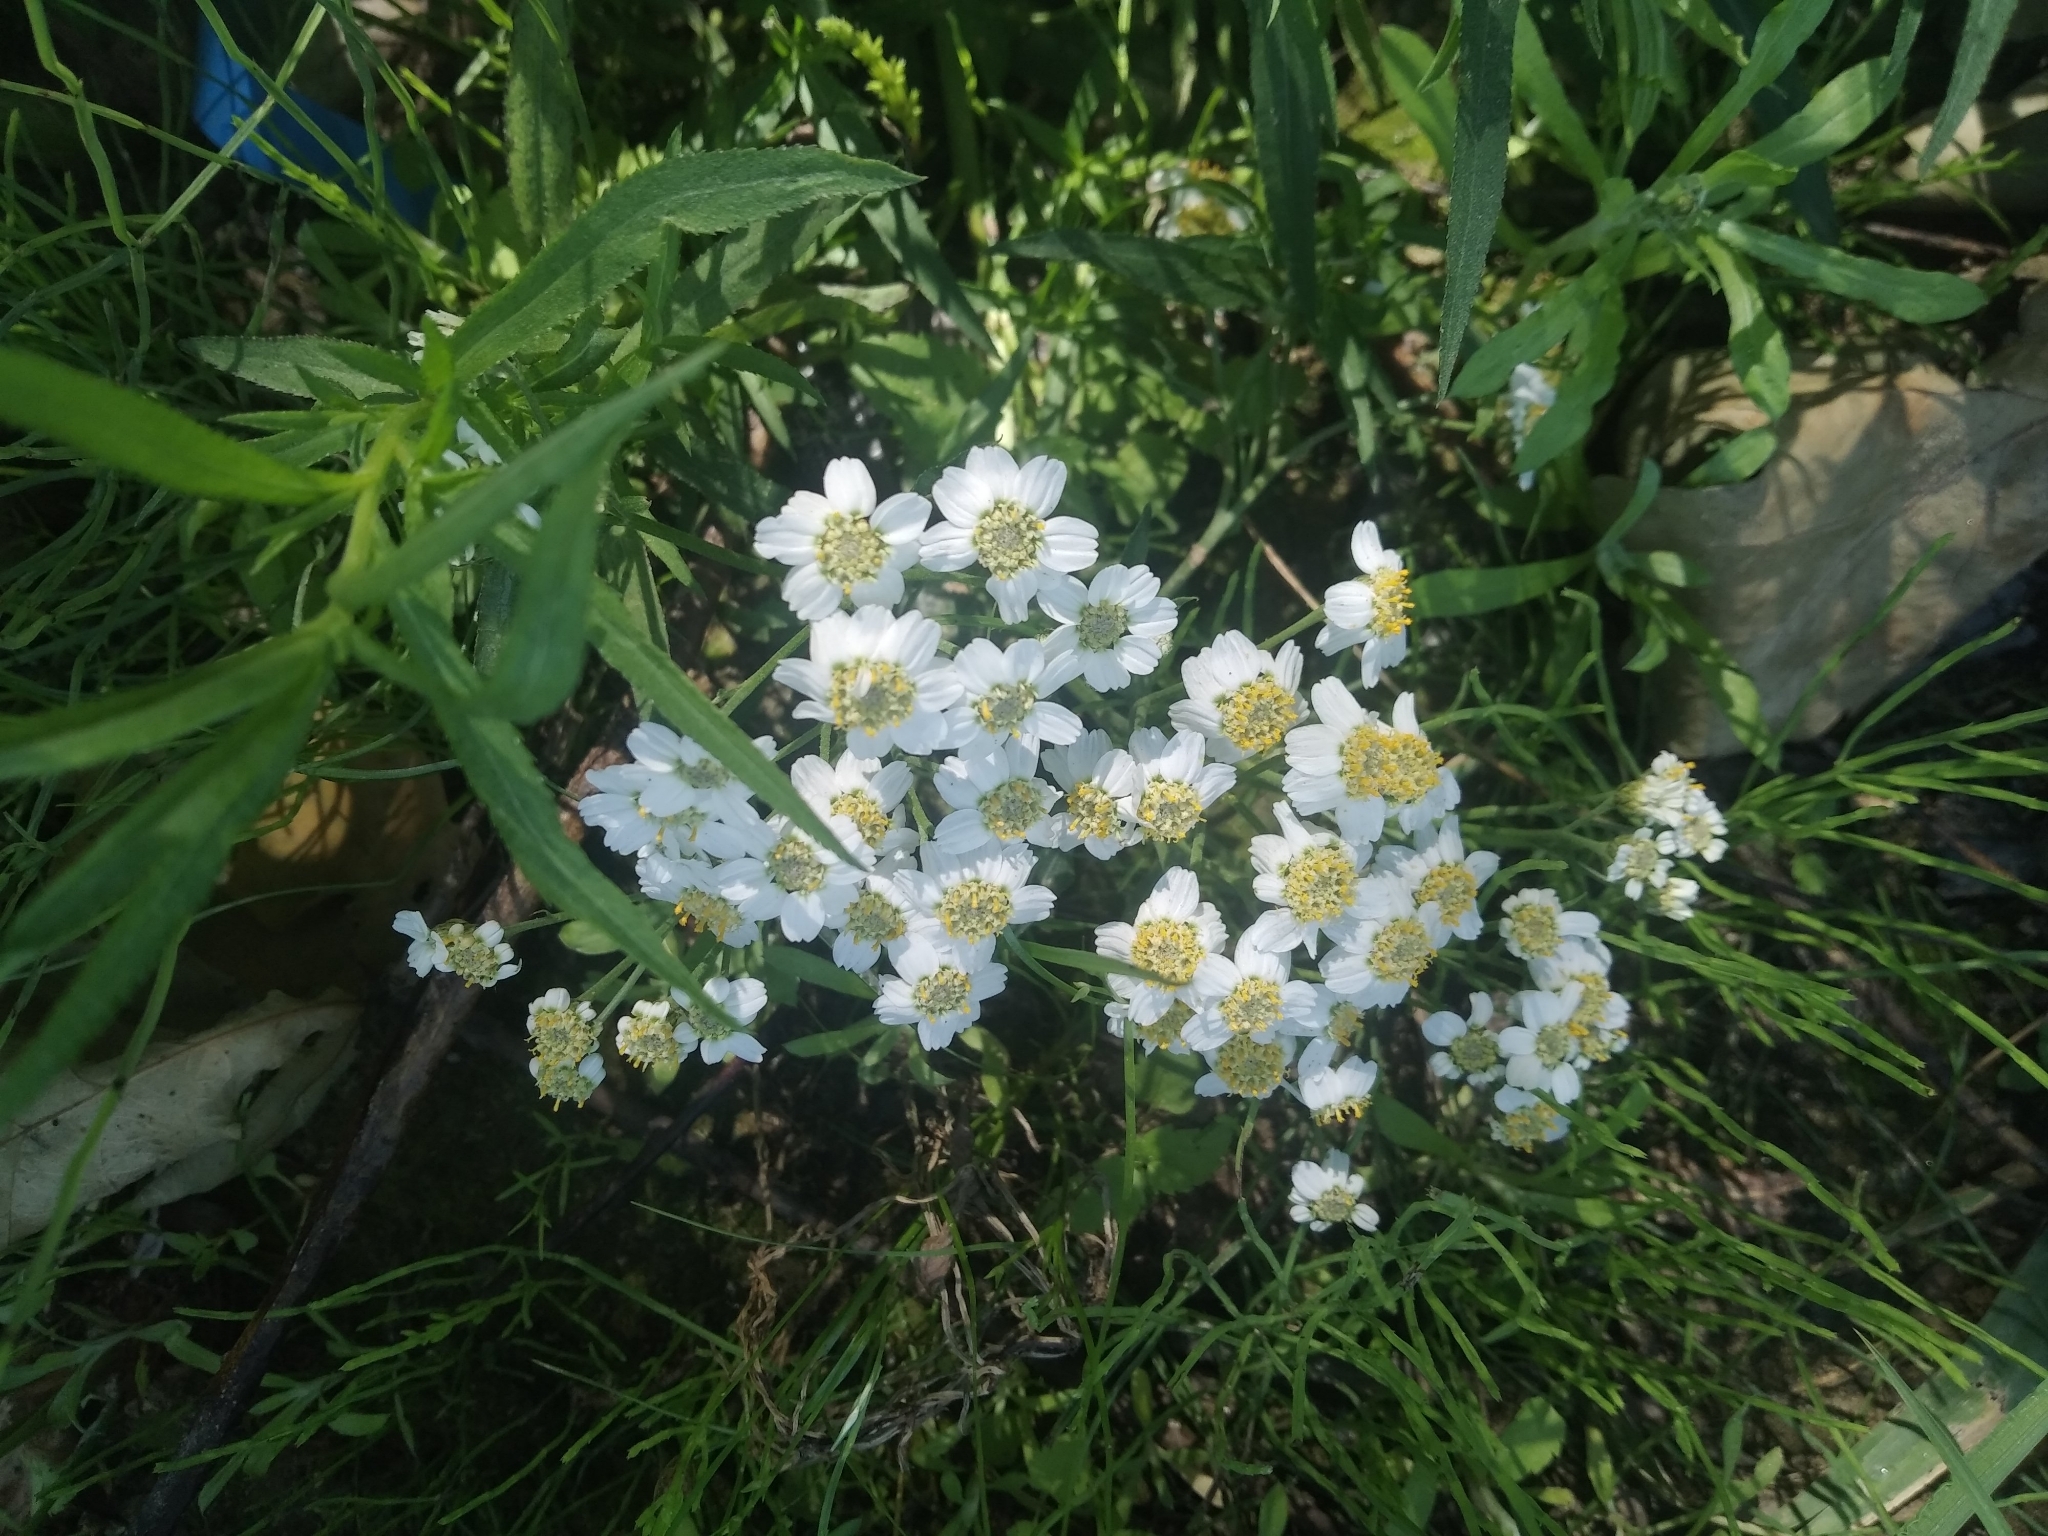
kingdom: Plantae
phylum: Tracheophyta
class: Magnoliopsida
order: Asterales
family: Asteraceae
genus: Achillea
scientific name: Achillea salicifolia
